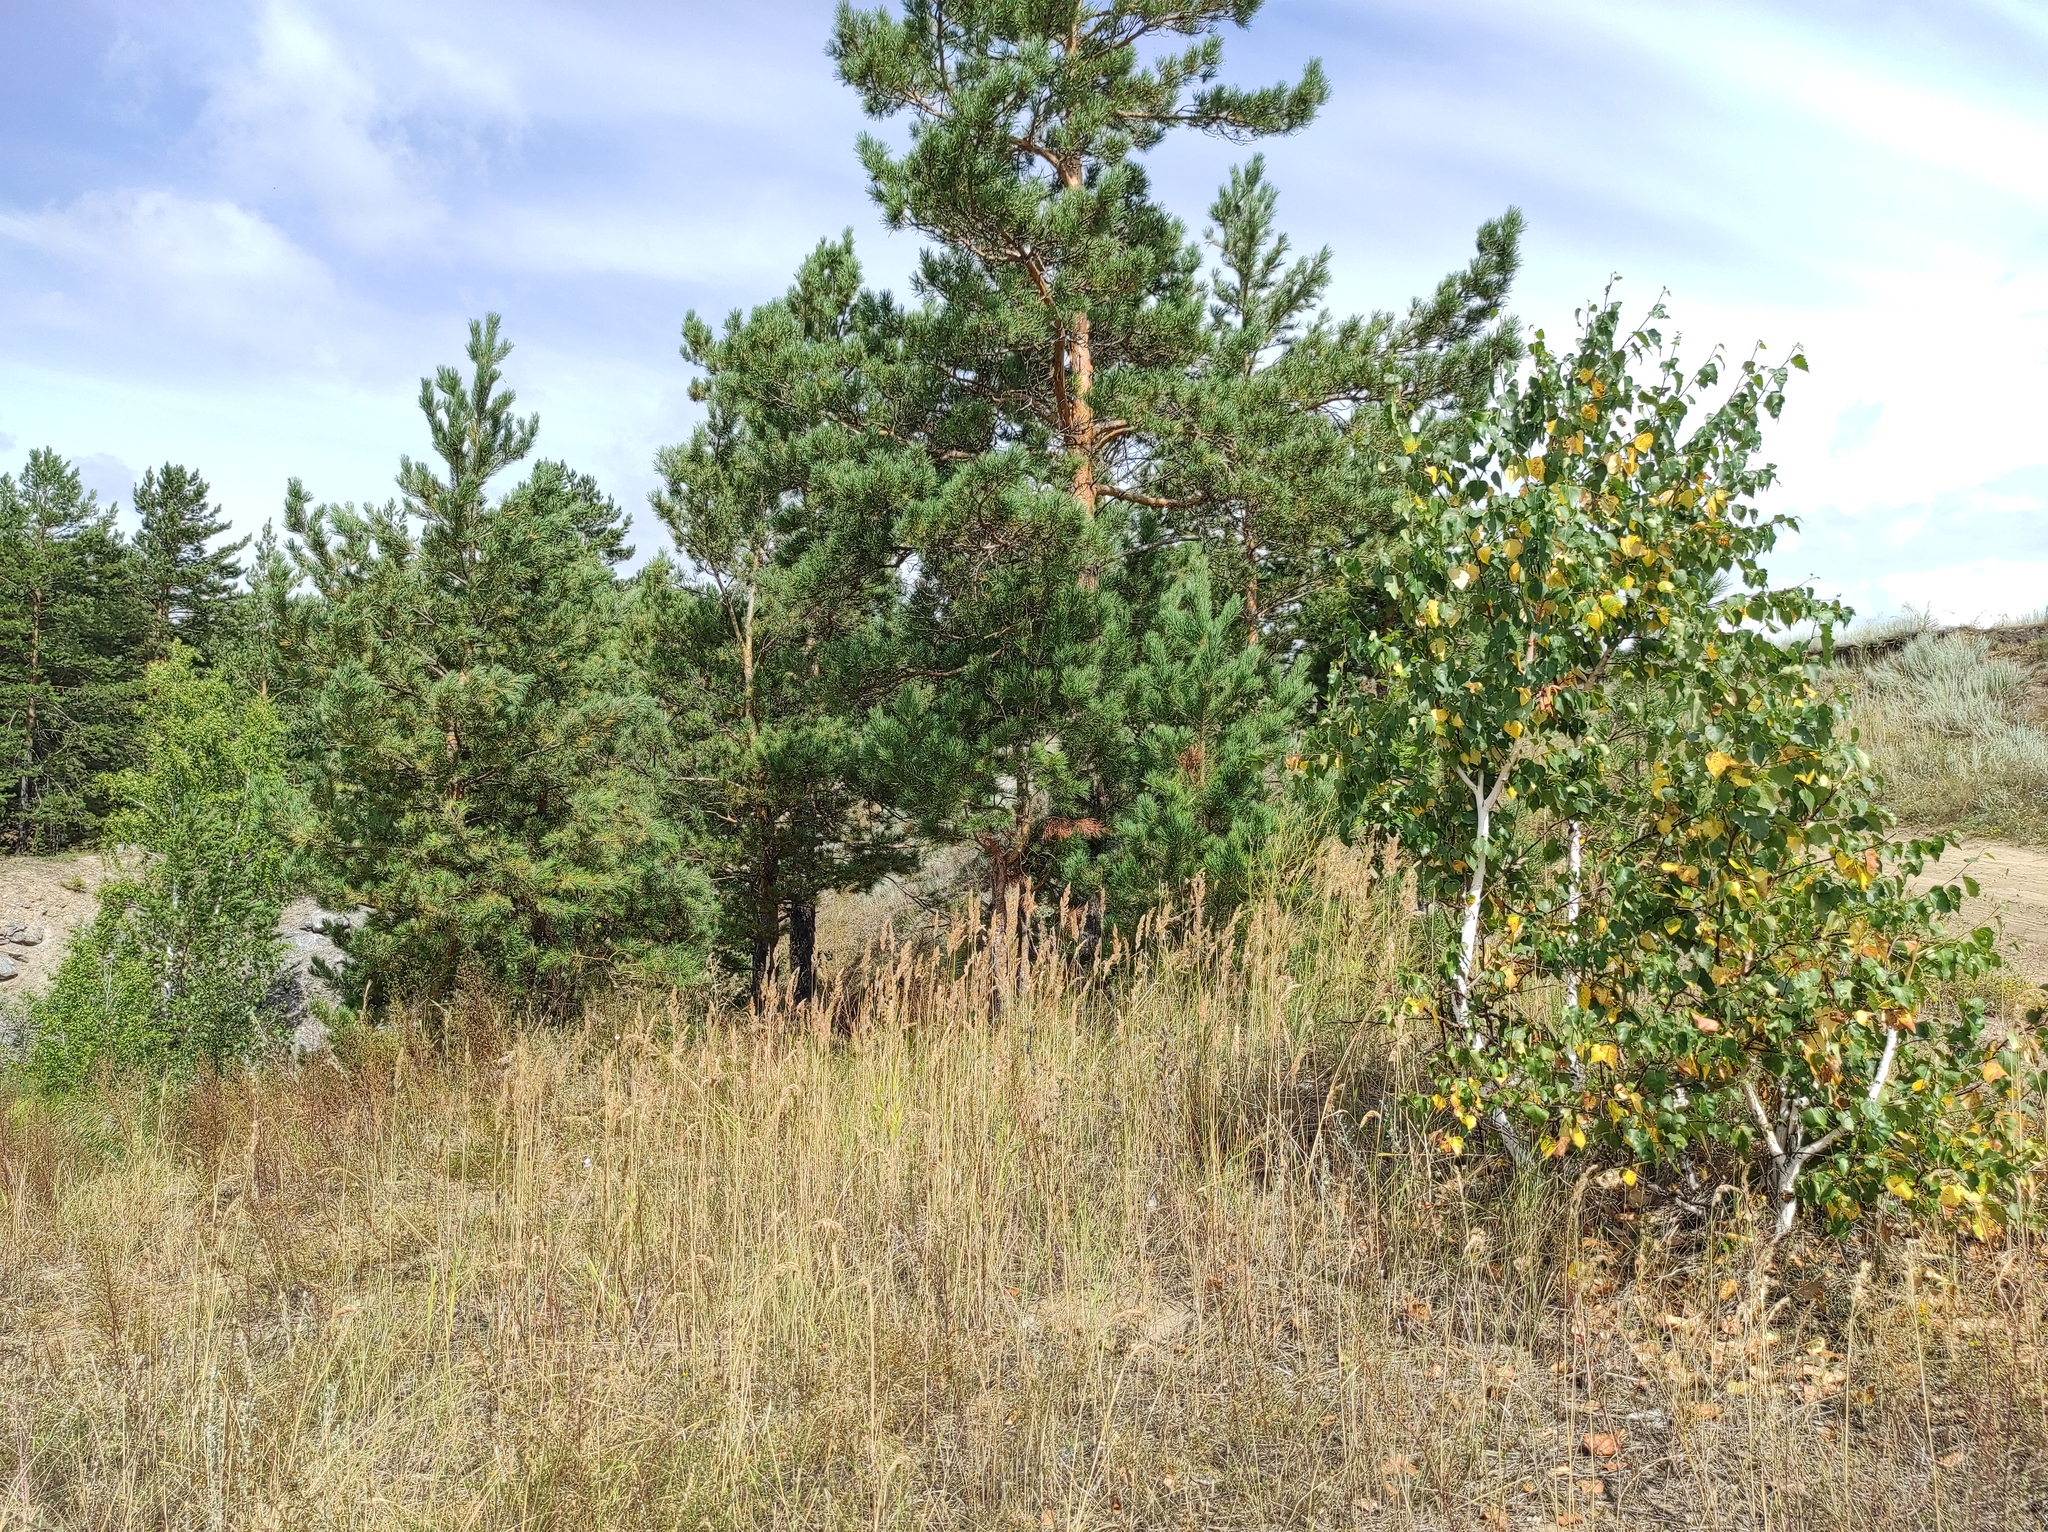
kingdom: Plantae
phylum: Tracheophyta
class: Pinopsida
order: Pinales
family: Pinaceae
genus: Pinus
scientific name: Pinus sylvestris
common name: Scots pine
